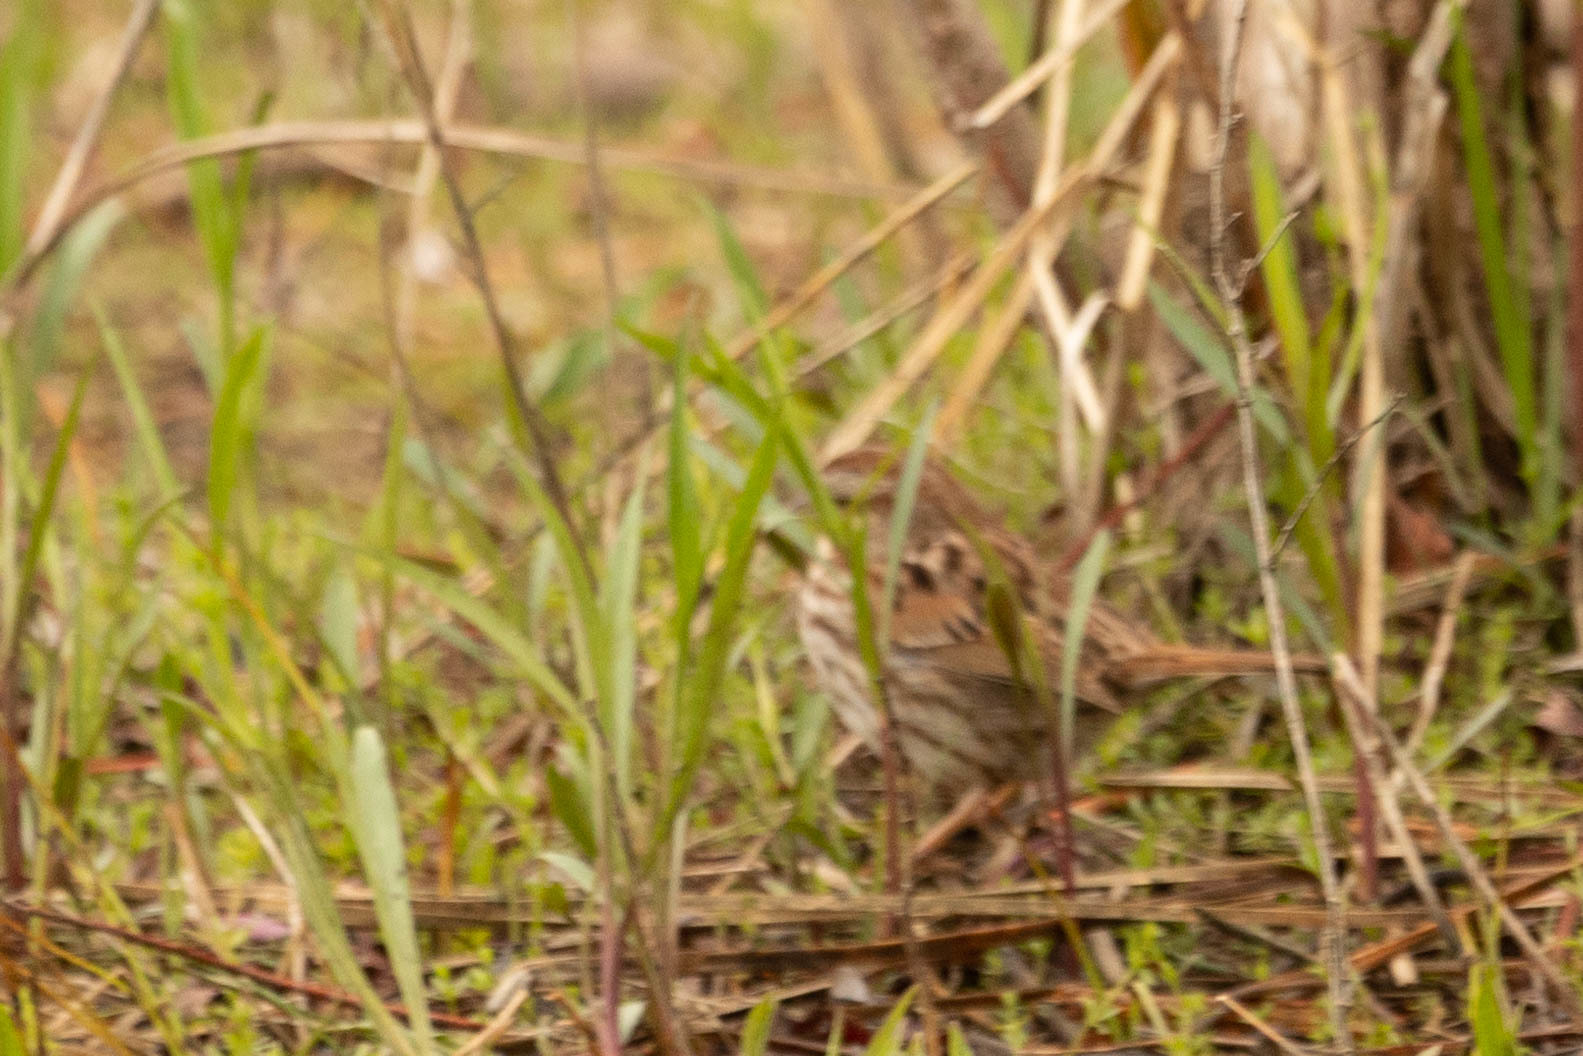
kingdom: Animalia
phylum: Chordata
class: Aves
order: Passeriformes
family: Passerellidae
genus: Melospiza
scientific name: Melospiza melodia
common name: Song sparrow
